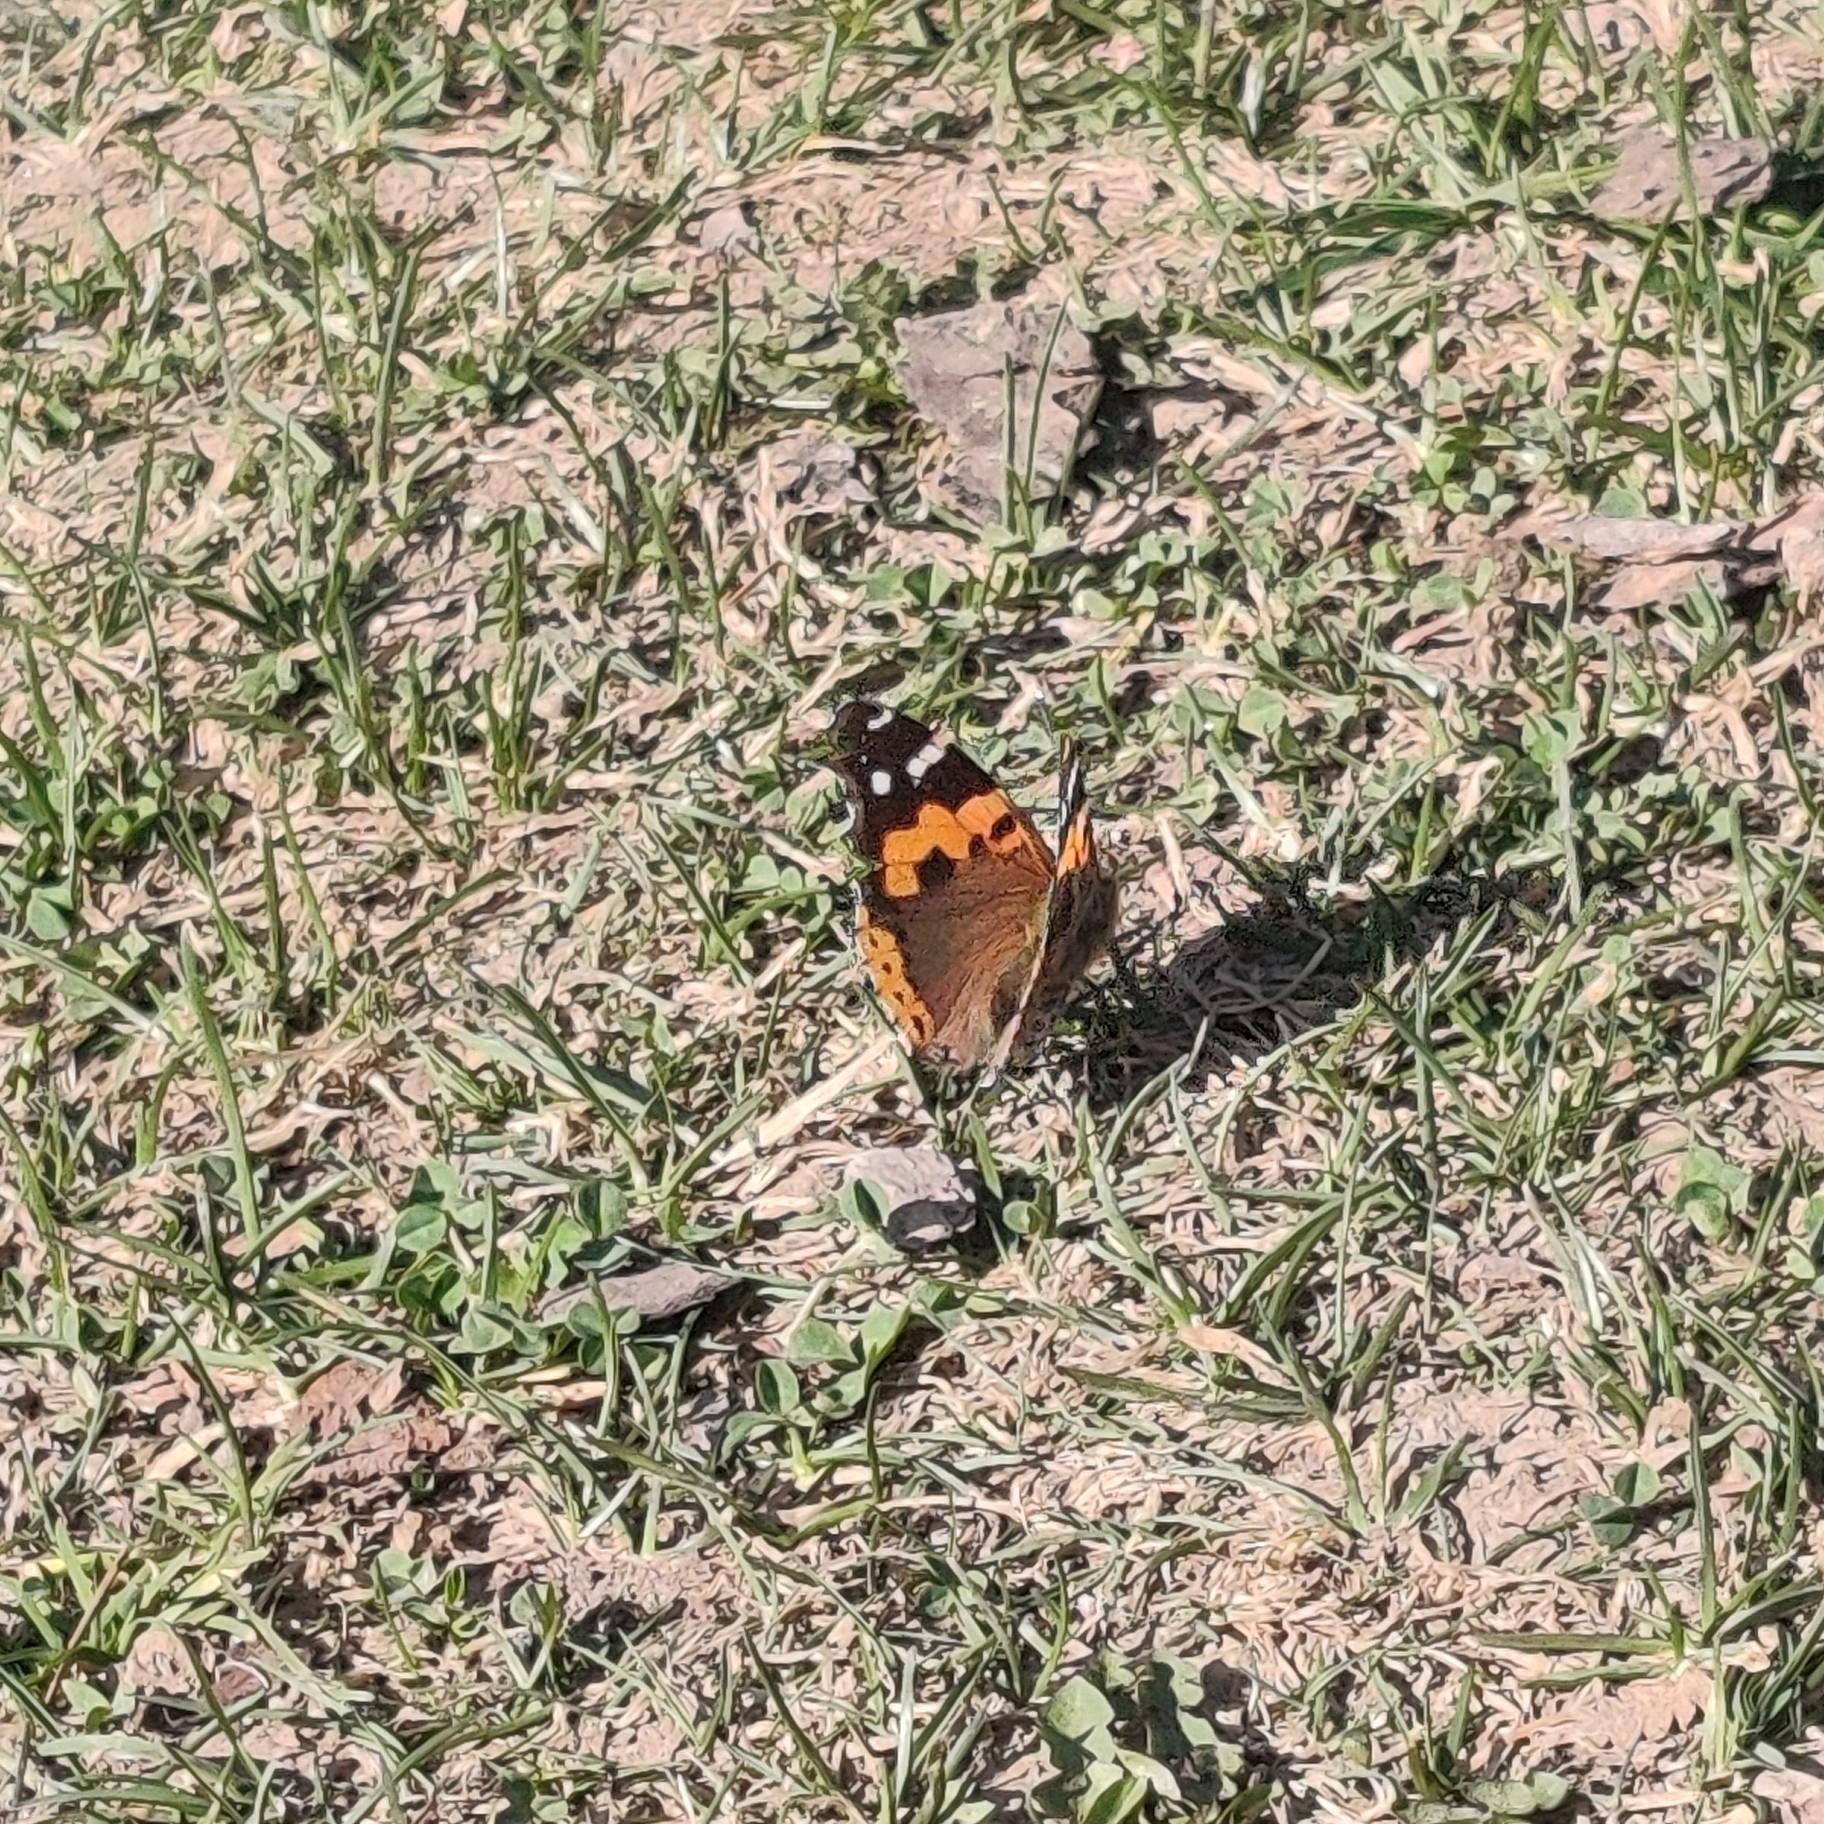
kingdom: Animalia
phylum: Arthropoda
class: Insecta
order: Lepidoptera
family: Nymphalidae
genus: Vanessa
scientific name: Vanessa indica
